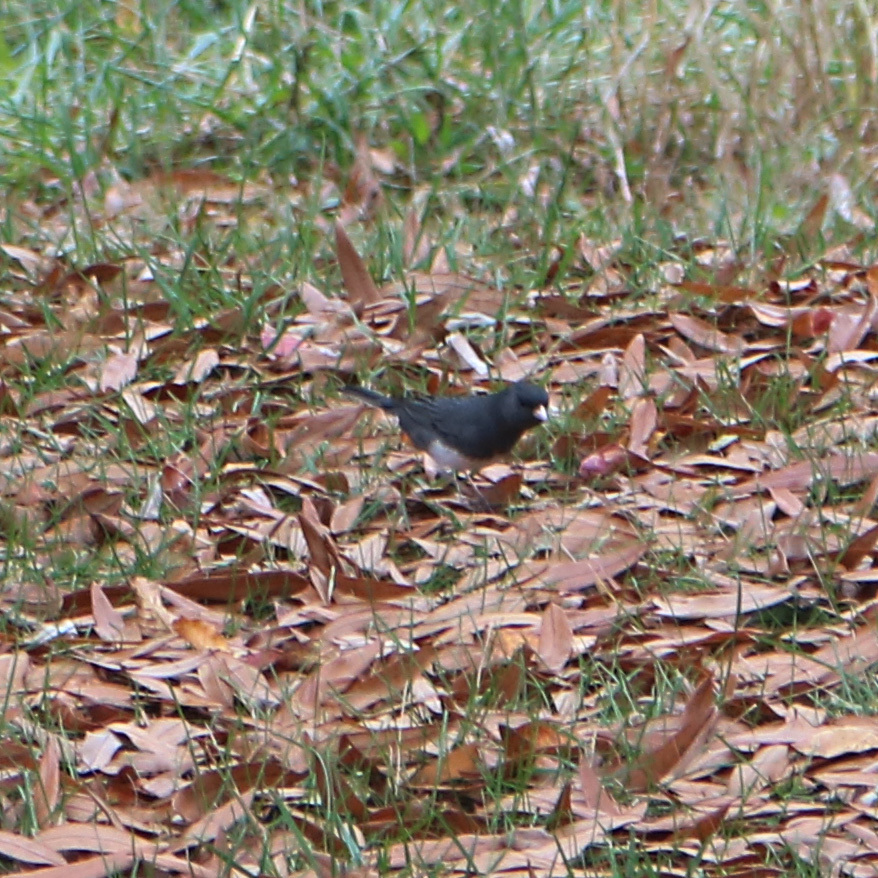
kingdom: Animalia
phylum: Chordata
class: Aves
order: Passeriformes
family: Passerellidae
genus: Junco
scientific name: Junco hyemalis
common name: Dark-eyed junco
